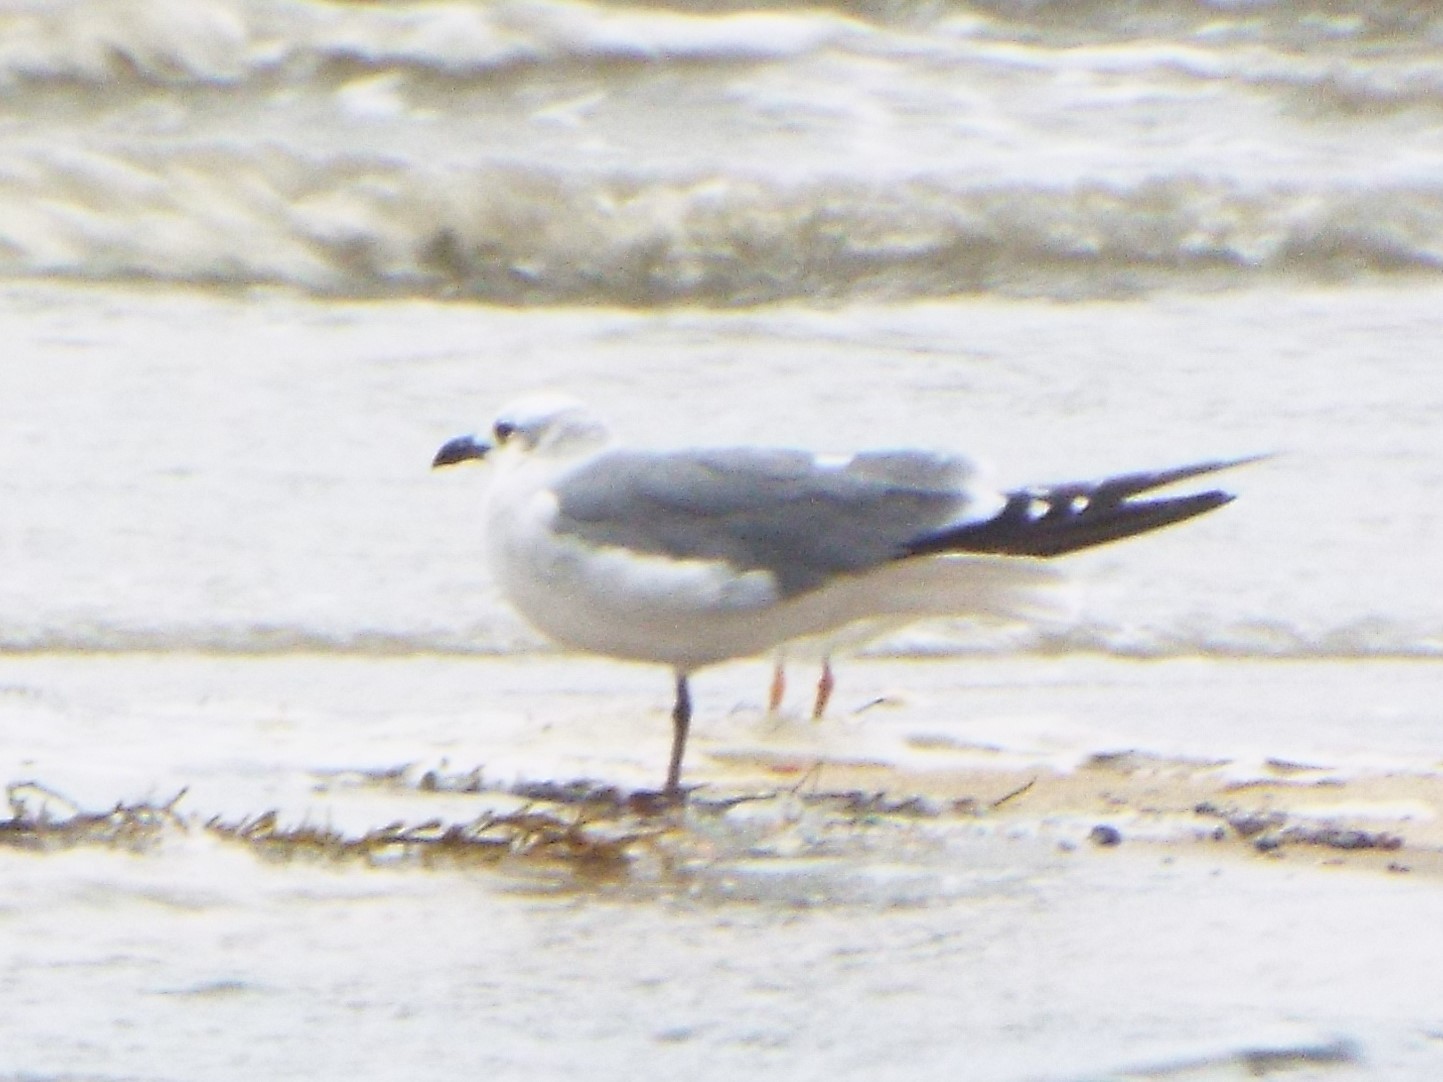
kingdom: Animalia
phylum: Chordata
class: Aves
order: Charadriiformes
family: Laridae
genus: Leucophaeus
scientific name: Leucophaeus atricilla
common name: Laughing gull
